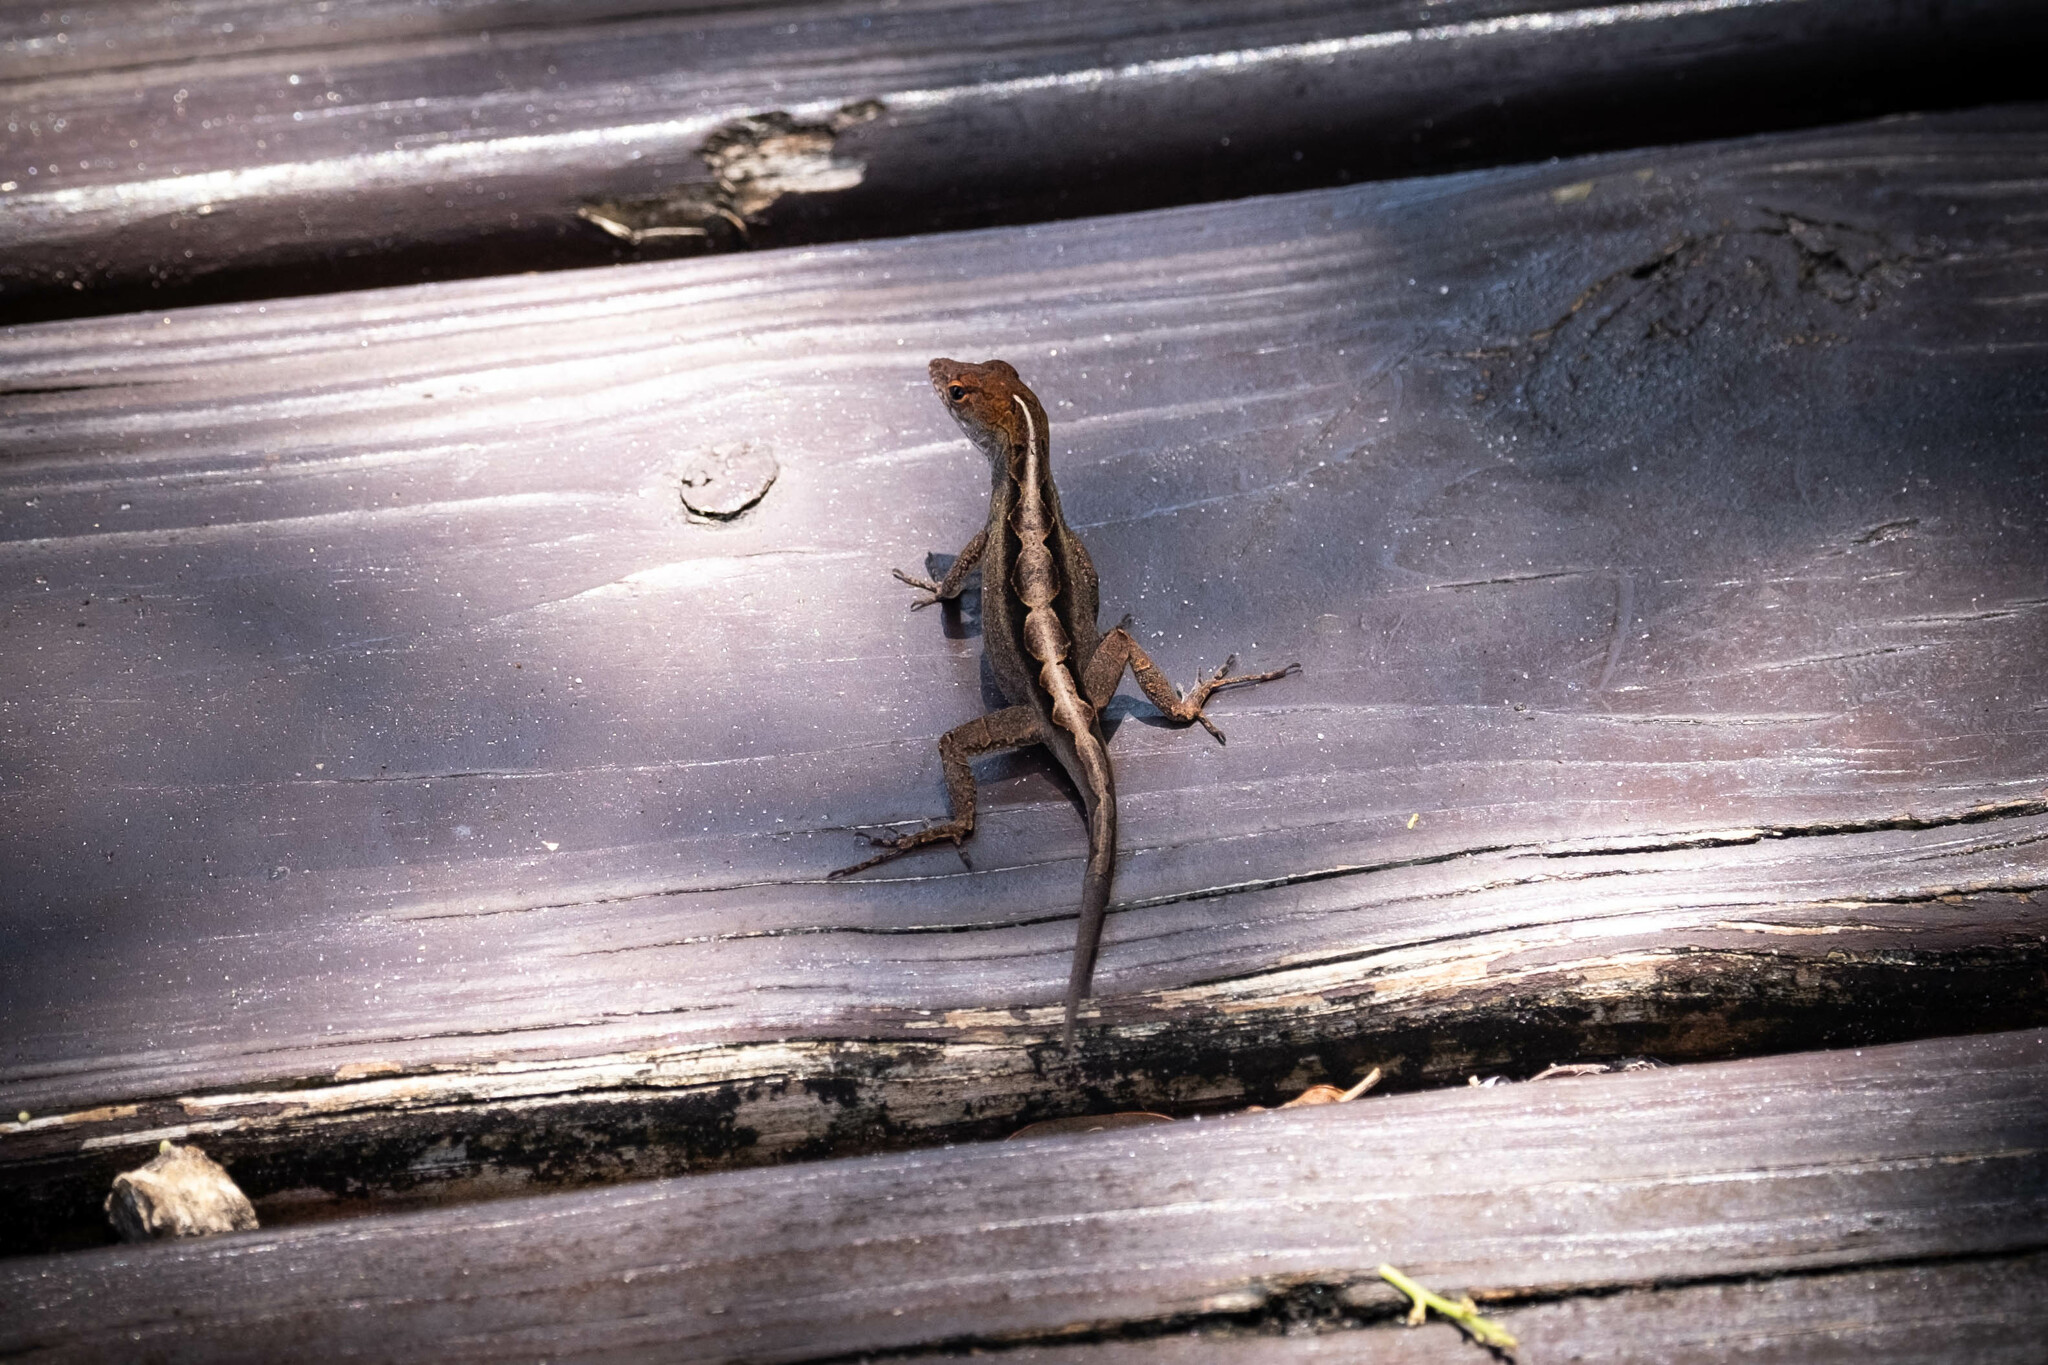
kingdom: Animalia
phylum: Chordata
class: Squamata
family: Dactyloidae
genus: Anolis
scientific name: Anolis sagrei
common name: Brown anole
